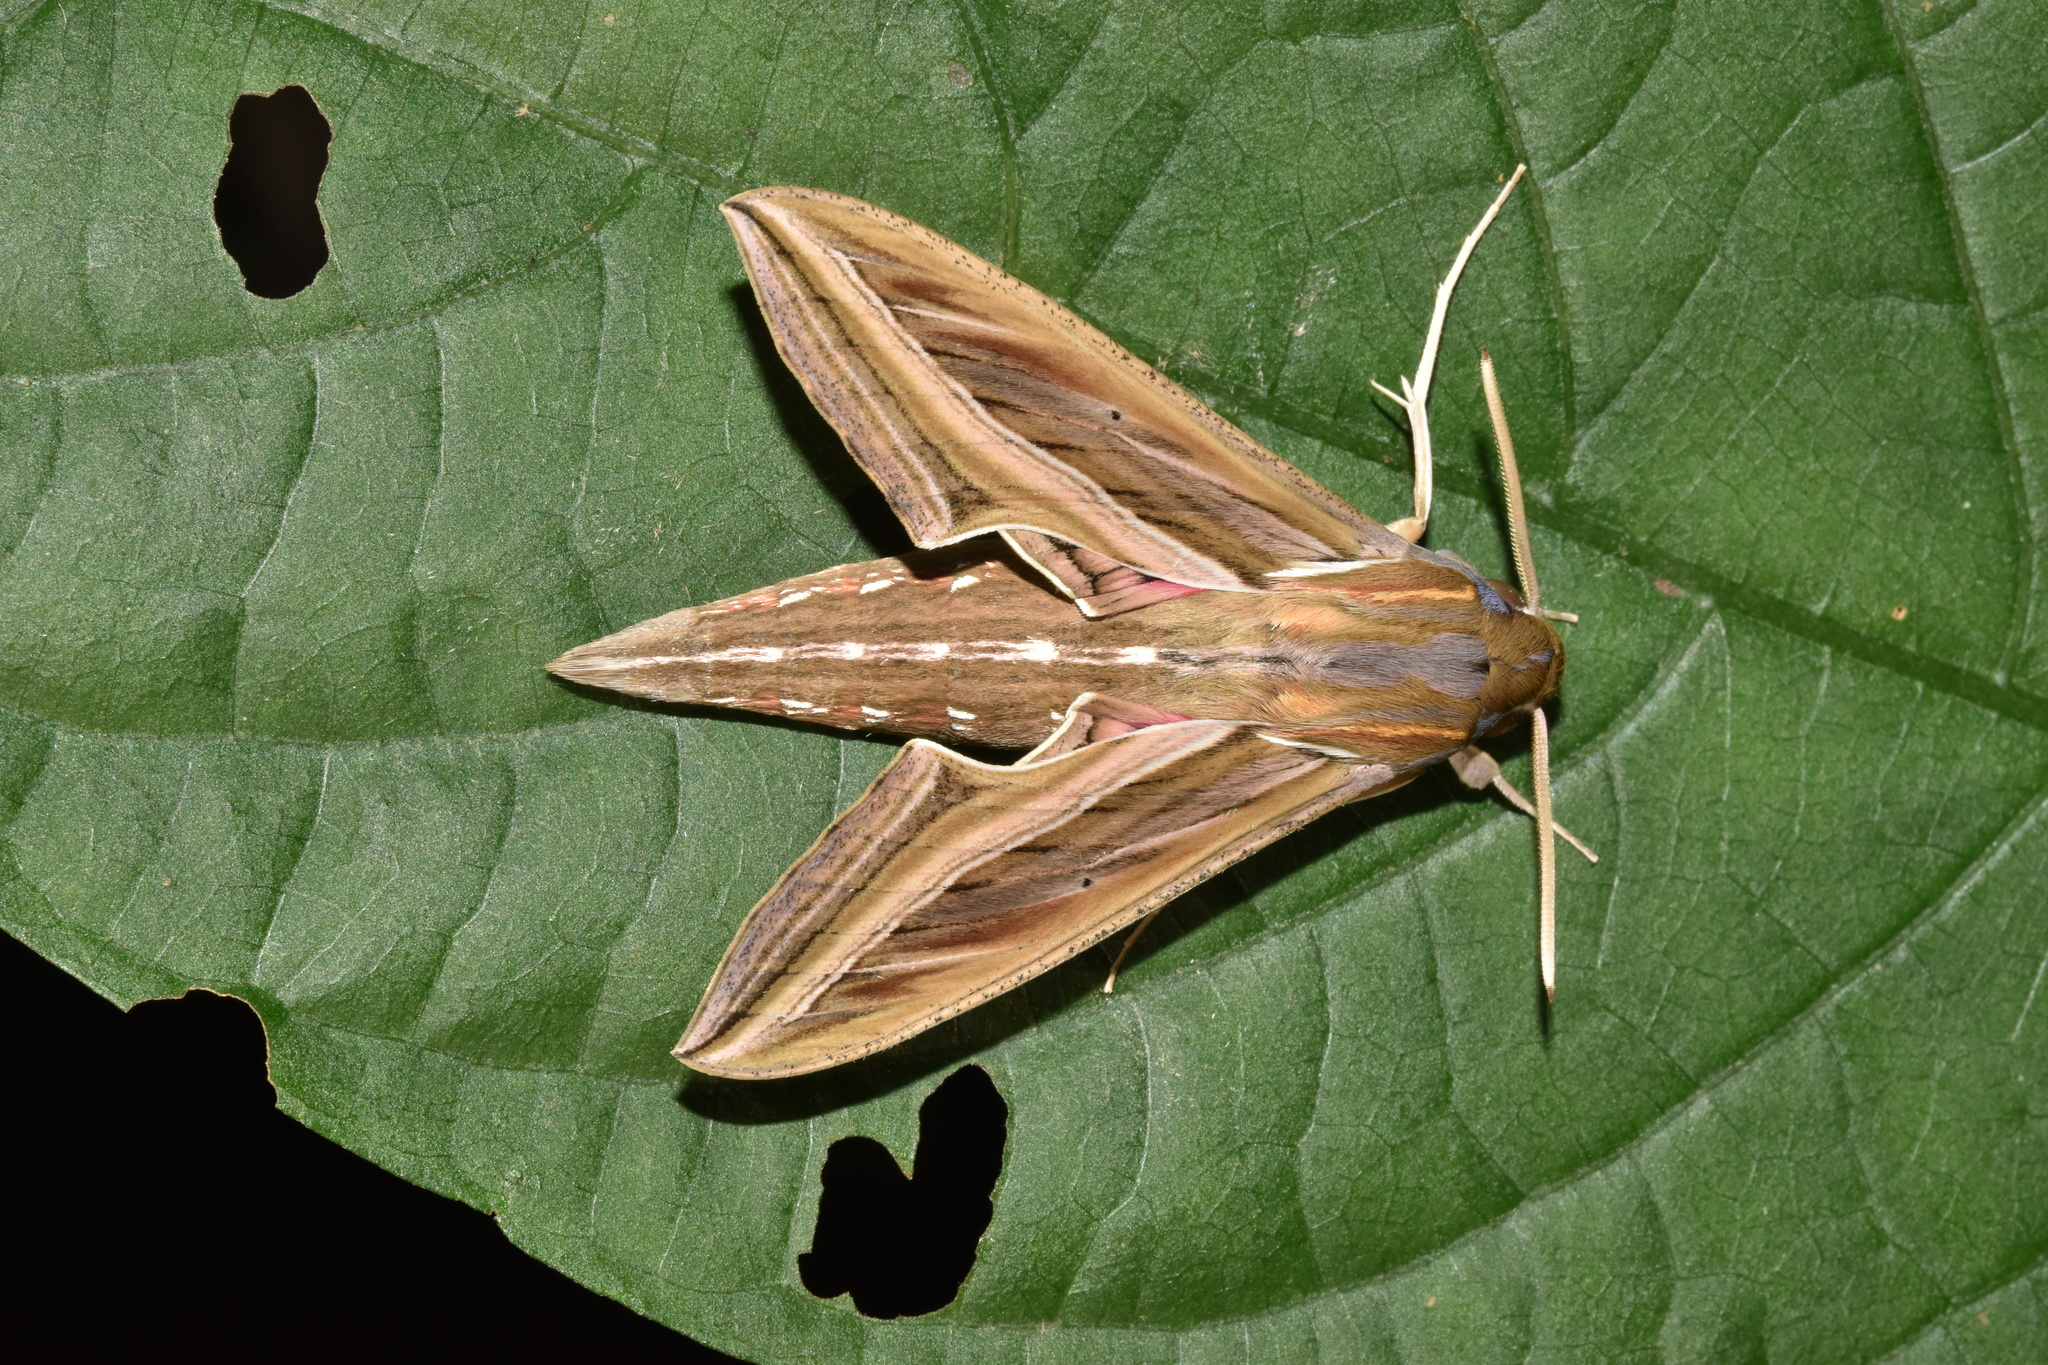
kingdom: Animalia
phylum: Arthropoda
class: Insecta
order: Lepidoptera
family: Sphingidae
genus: Hippotion
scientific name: Hippotion celerio
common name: Silver-striped hawk-moth
